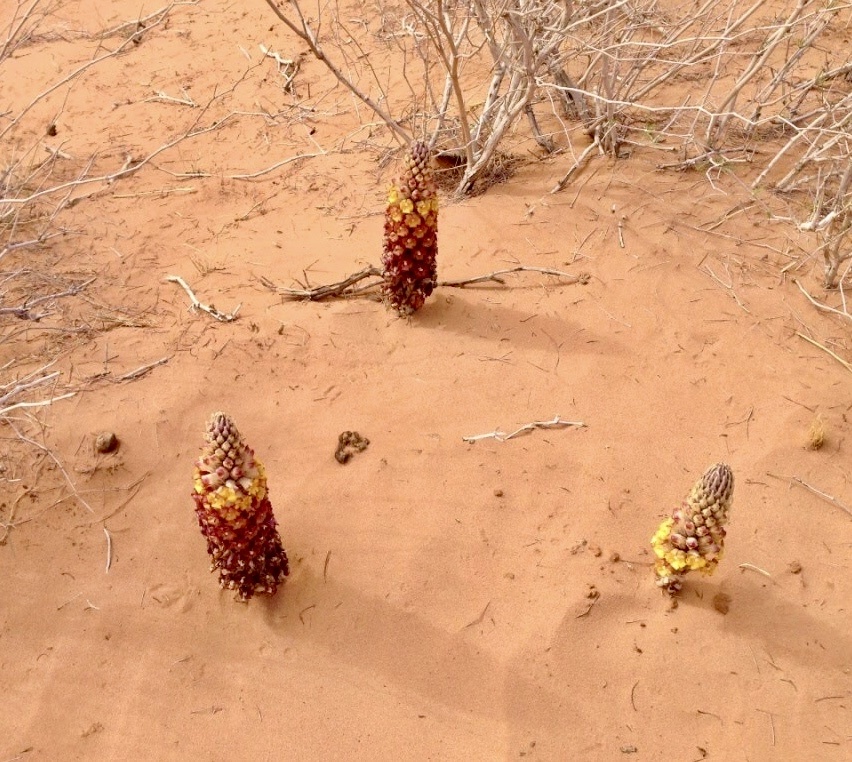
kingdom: Plantae
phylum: Tracheophyta
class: Magnoliopsida
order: Lamiales
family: Orobanchaceae
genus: Cistanche
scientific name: Cistanche tubulosa
